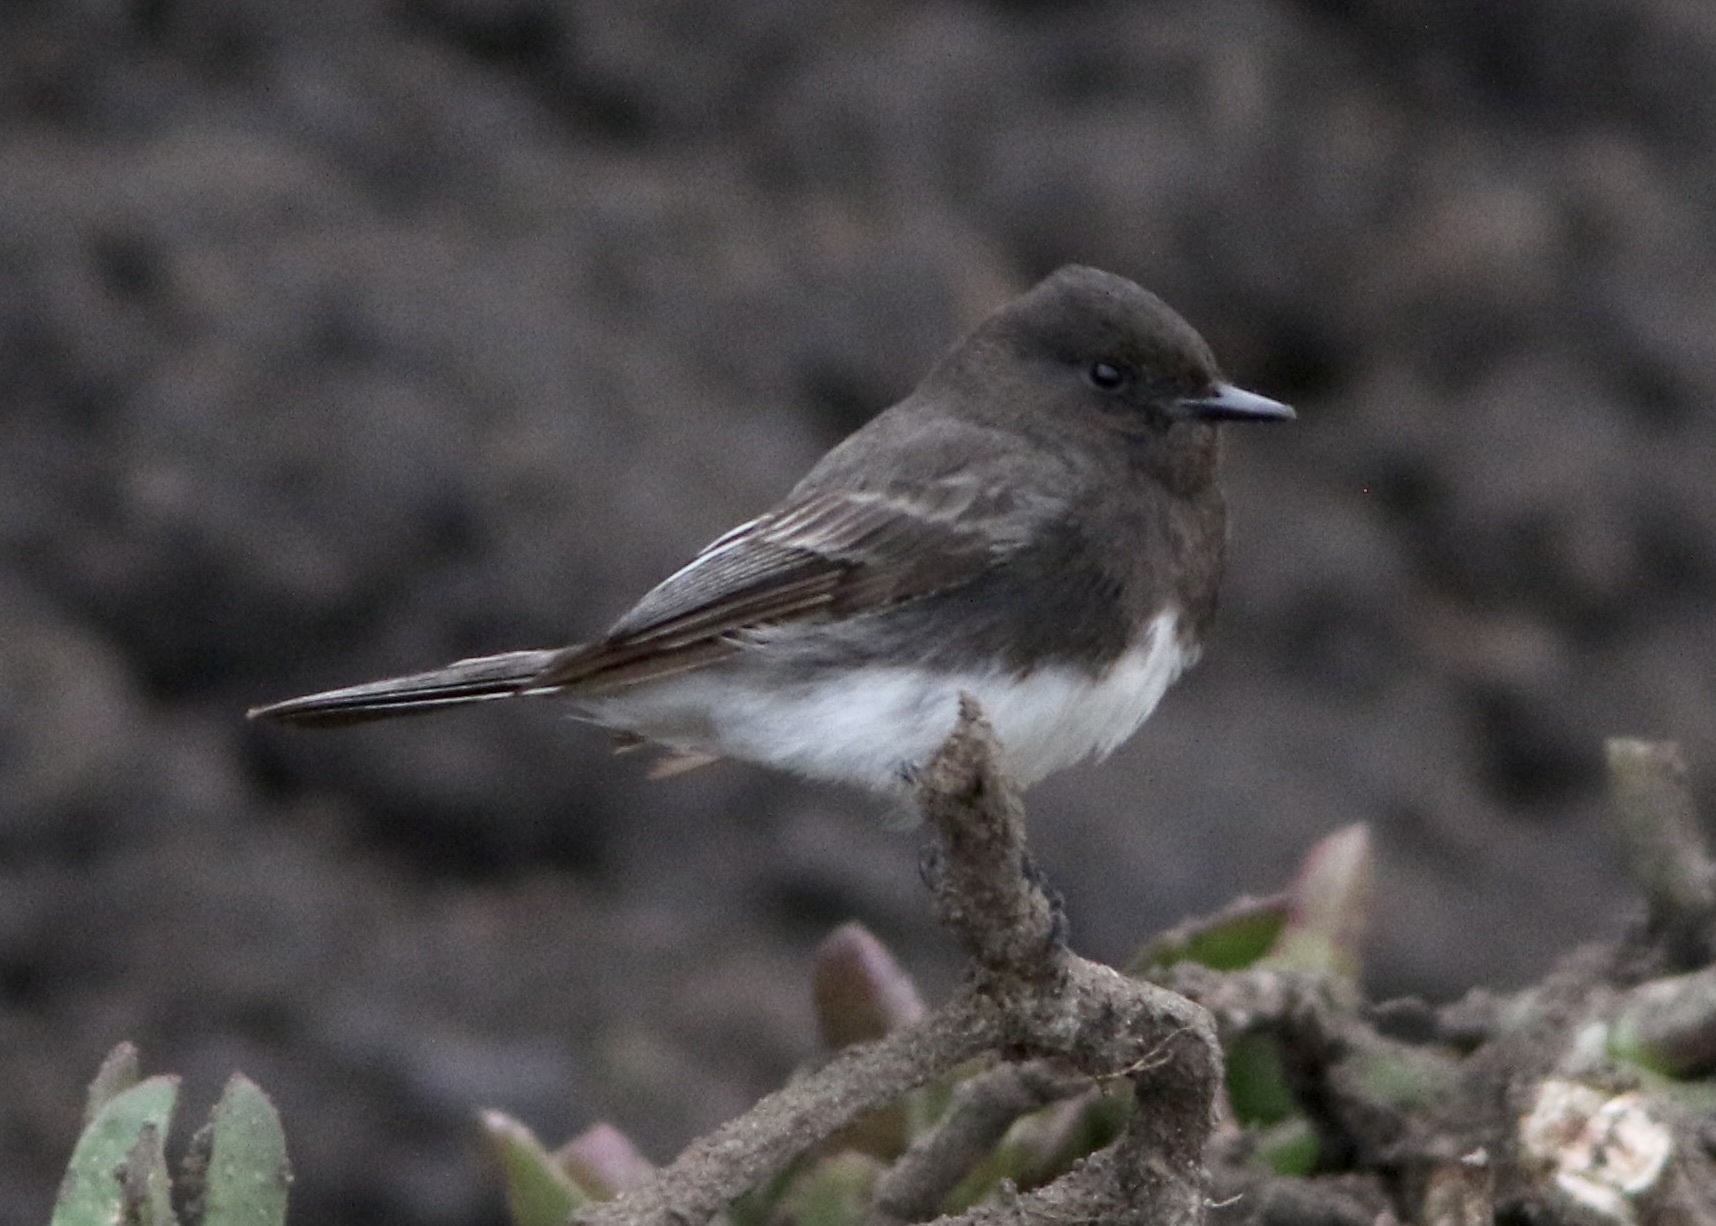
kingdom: Animalia
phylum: Chordata
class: Aves
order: Passeriformes
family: Tyrannidae
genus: Sayornis
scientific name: Sayornis nigricans
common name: Black phoebe
